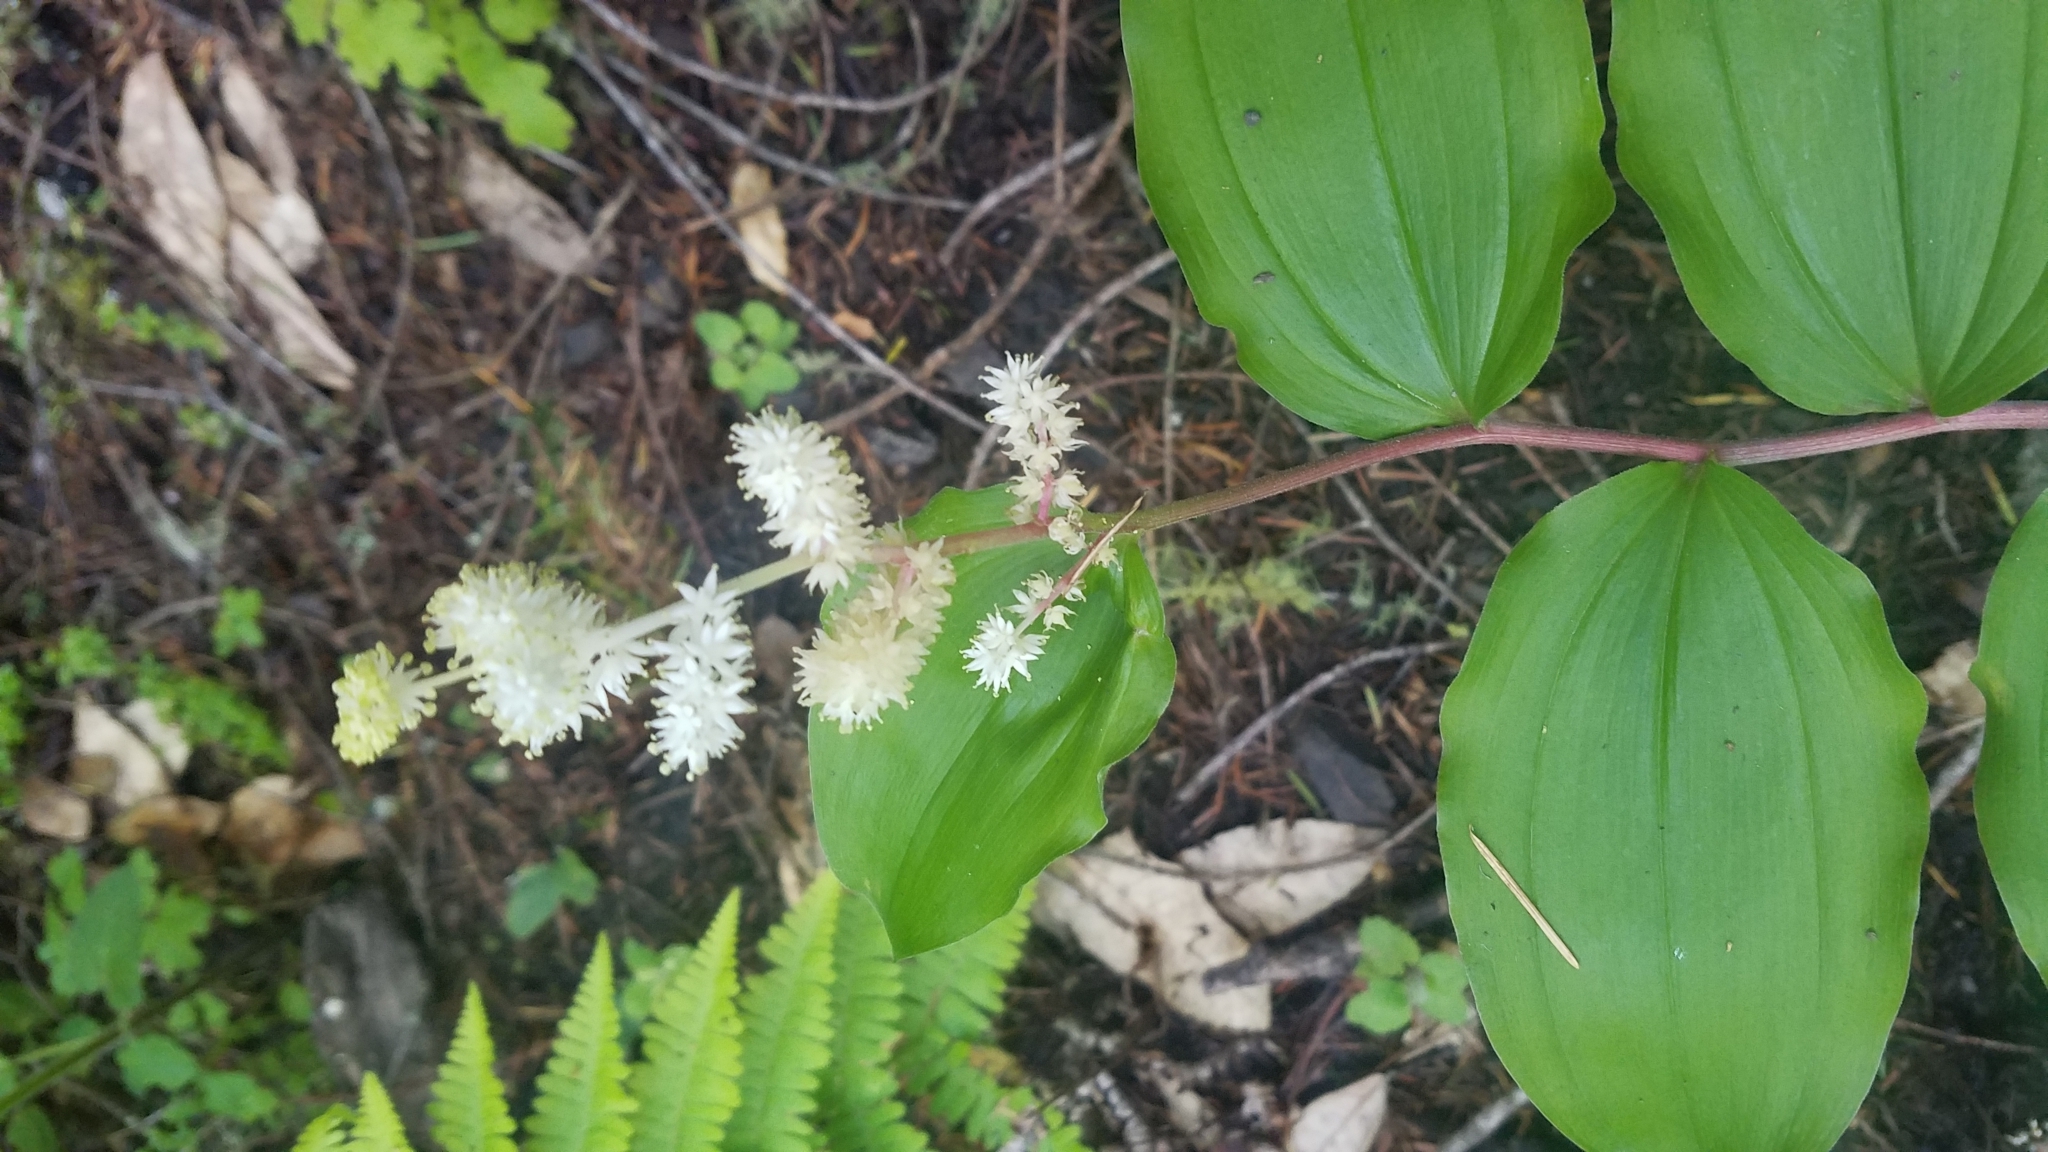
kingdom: Plantae
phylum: Tracheophyta
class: Liliopsida
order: Asparagales
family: Asparagaceae
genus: Maianthemum
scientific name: Maianthemum racemosum
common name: False spikenard
